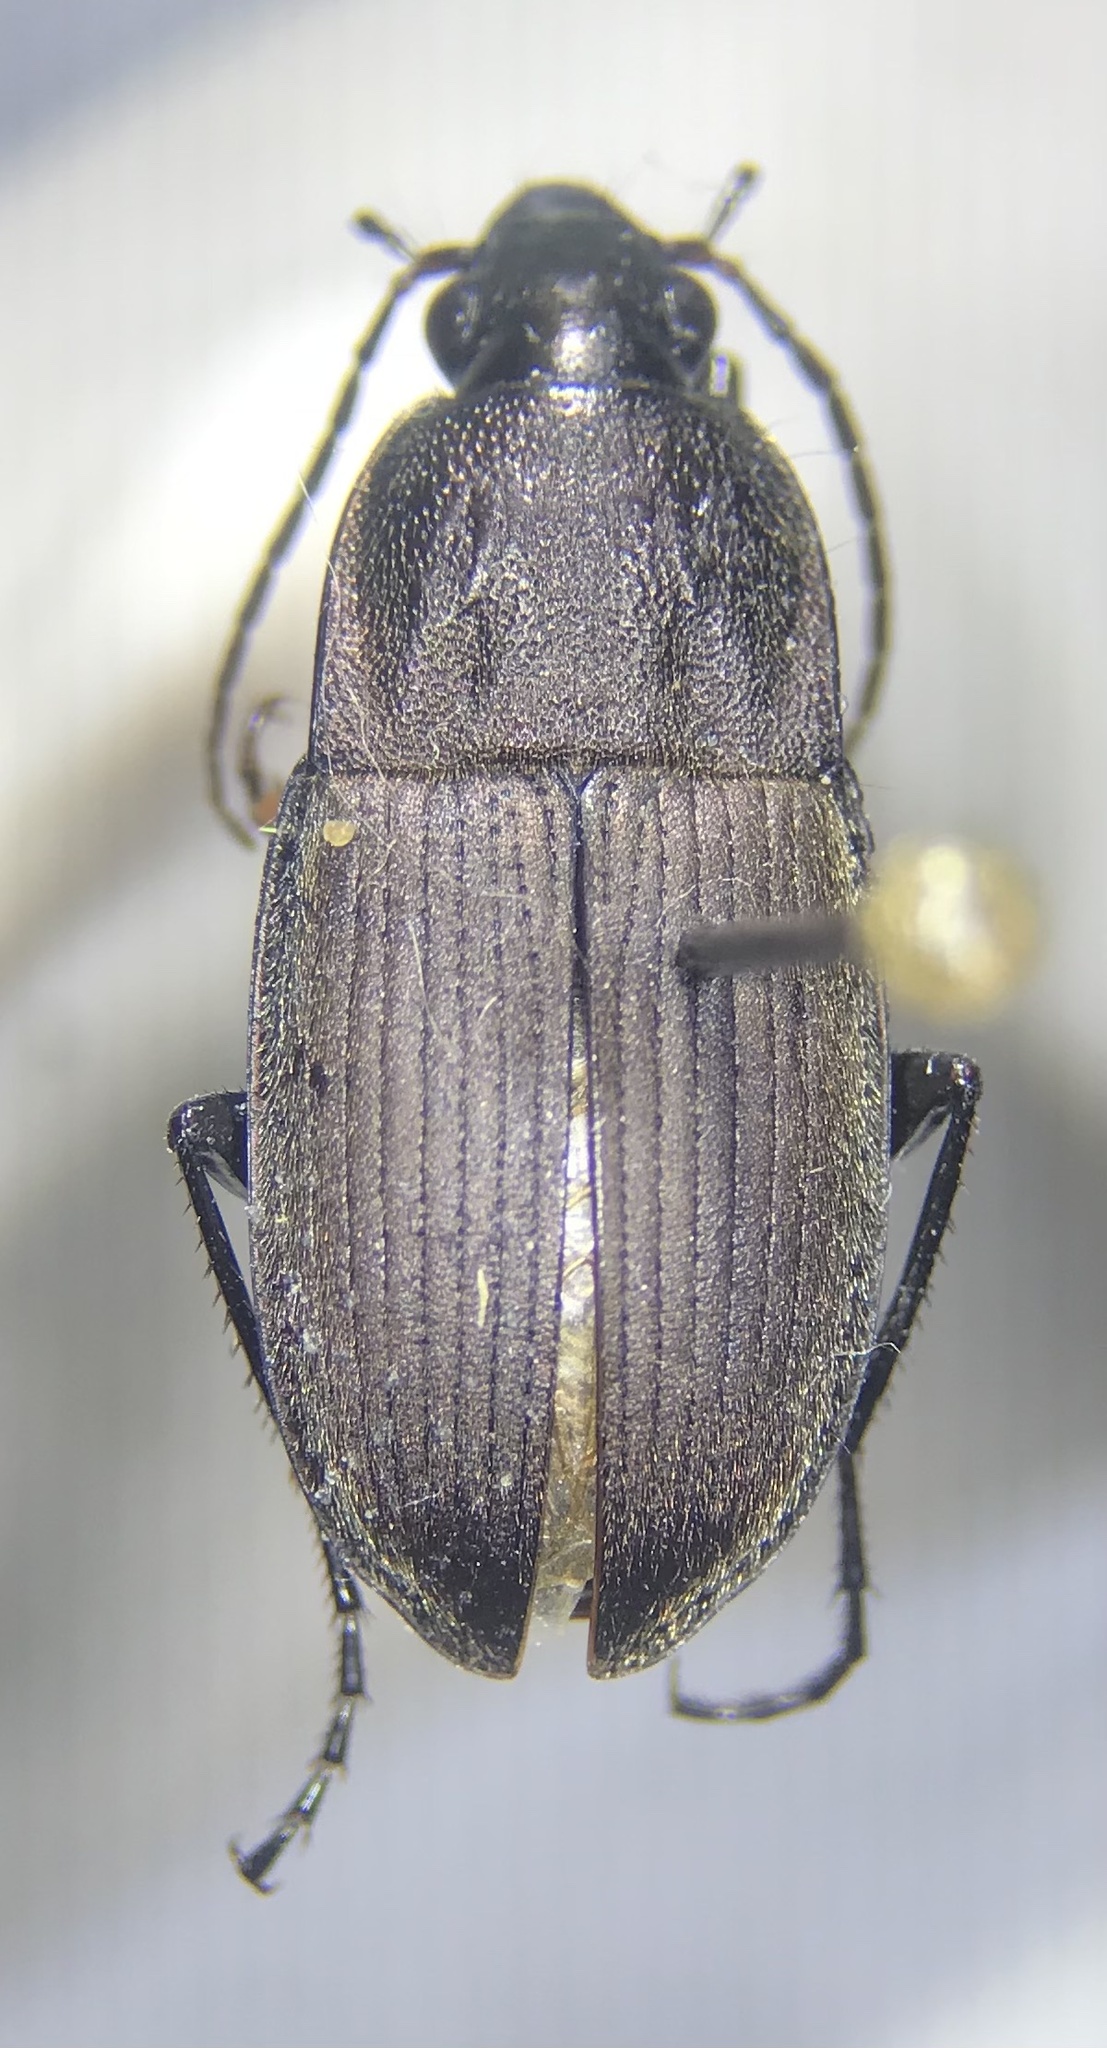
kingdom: Animalia
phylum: Arthropoda
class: Insecta
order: Coleoptera
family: Carabidae
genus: Chlaenius
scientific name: Chlaenius tomentosus
